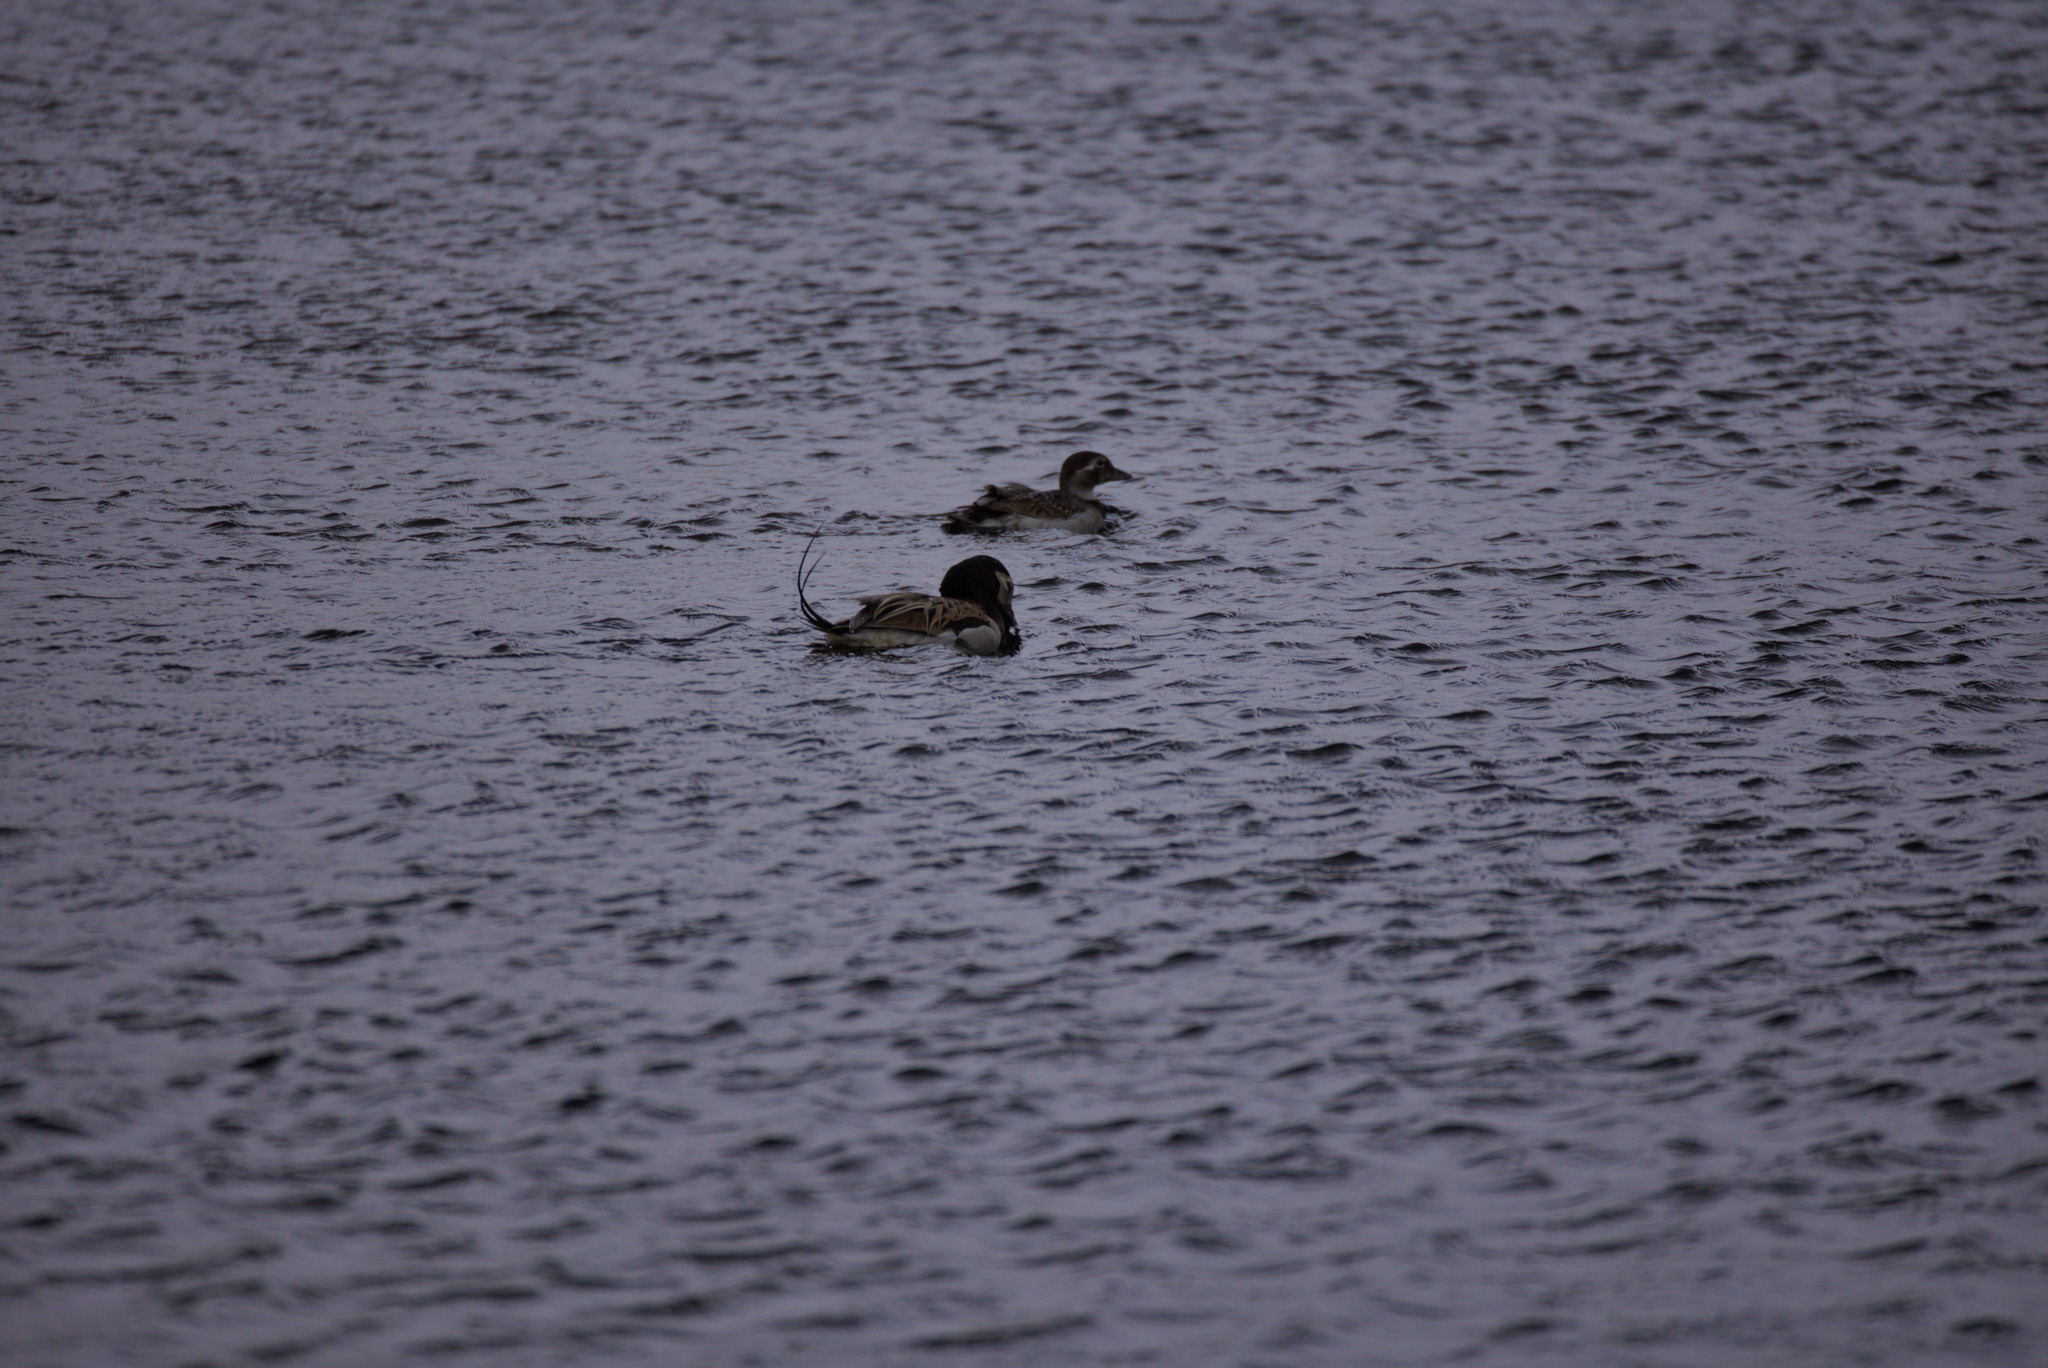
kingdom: Animalia
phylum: Chordata
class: Aves
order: Anseriformes
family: Anatidae
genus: Clangula
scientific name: Clangula hyemalis
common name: Long-tailed duck
